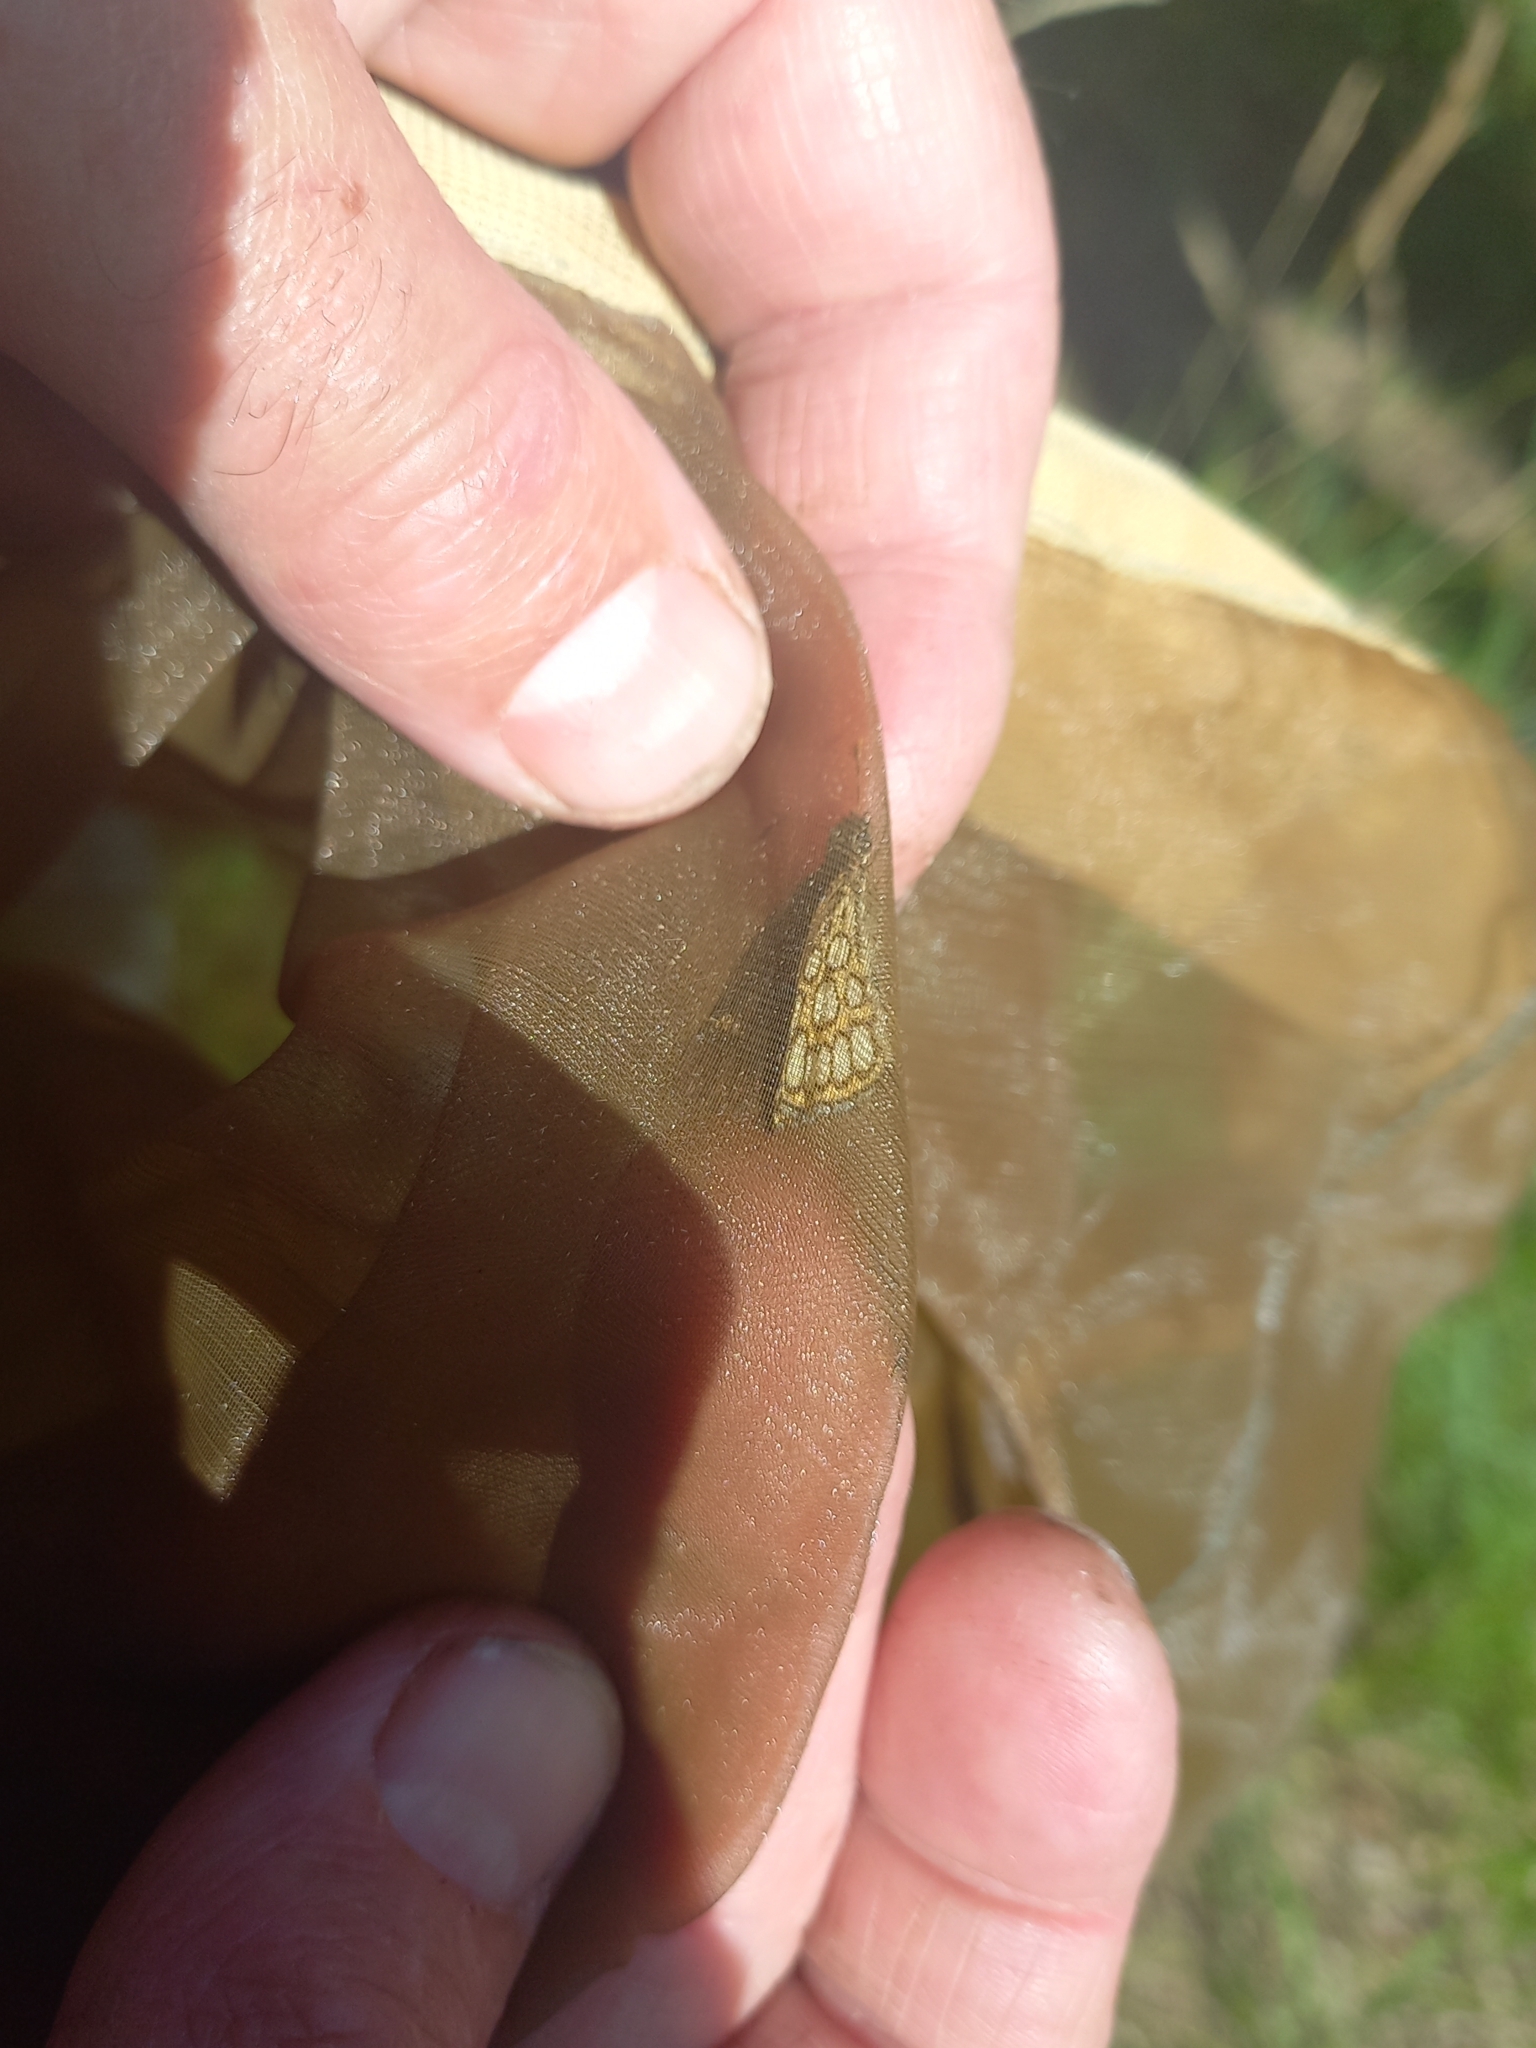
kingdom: Animalia
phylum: Arthropoda
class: Insecta
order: Lepidoptera
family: Hesperiidae
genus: Heteropterus
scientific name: Heteropterus morpheus
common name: Large chequered skipper
